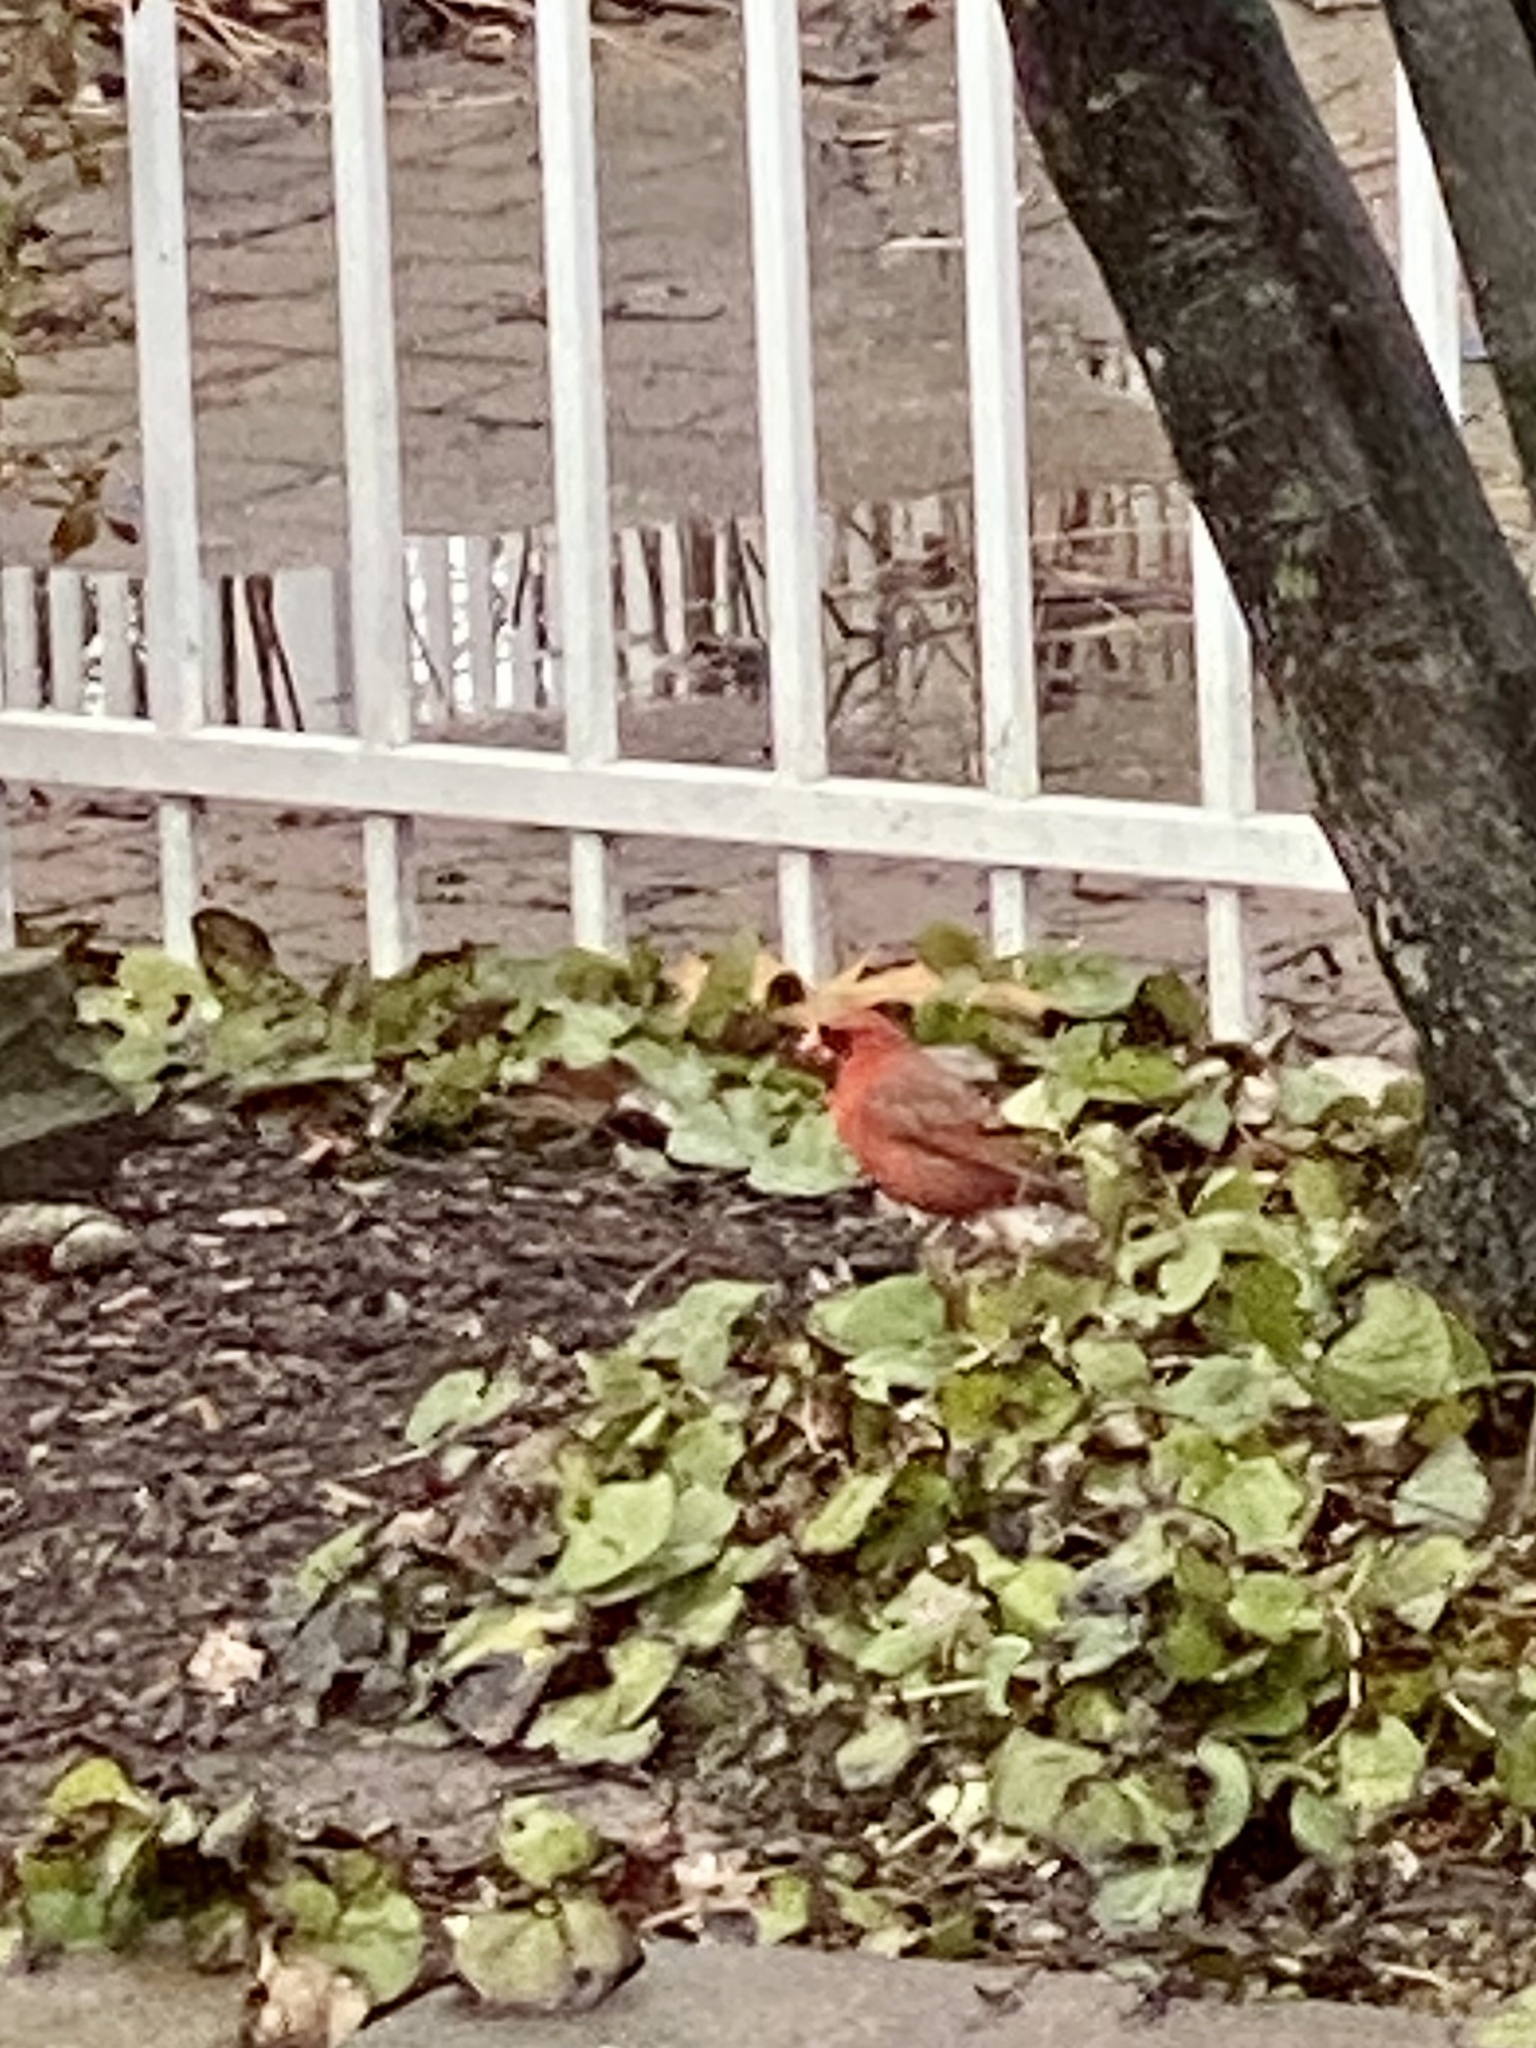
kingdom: Animalia
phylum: Chordata
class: Aves
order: Passeriformes
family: Cardinalidae
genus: Cardinalis
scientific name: Cardinalis cardinalis
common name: Northern cardinal
